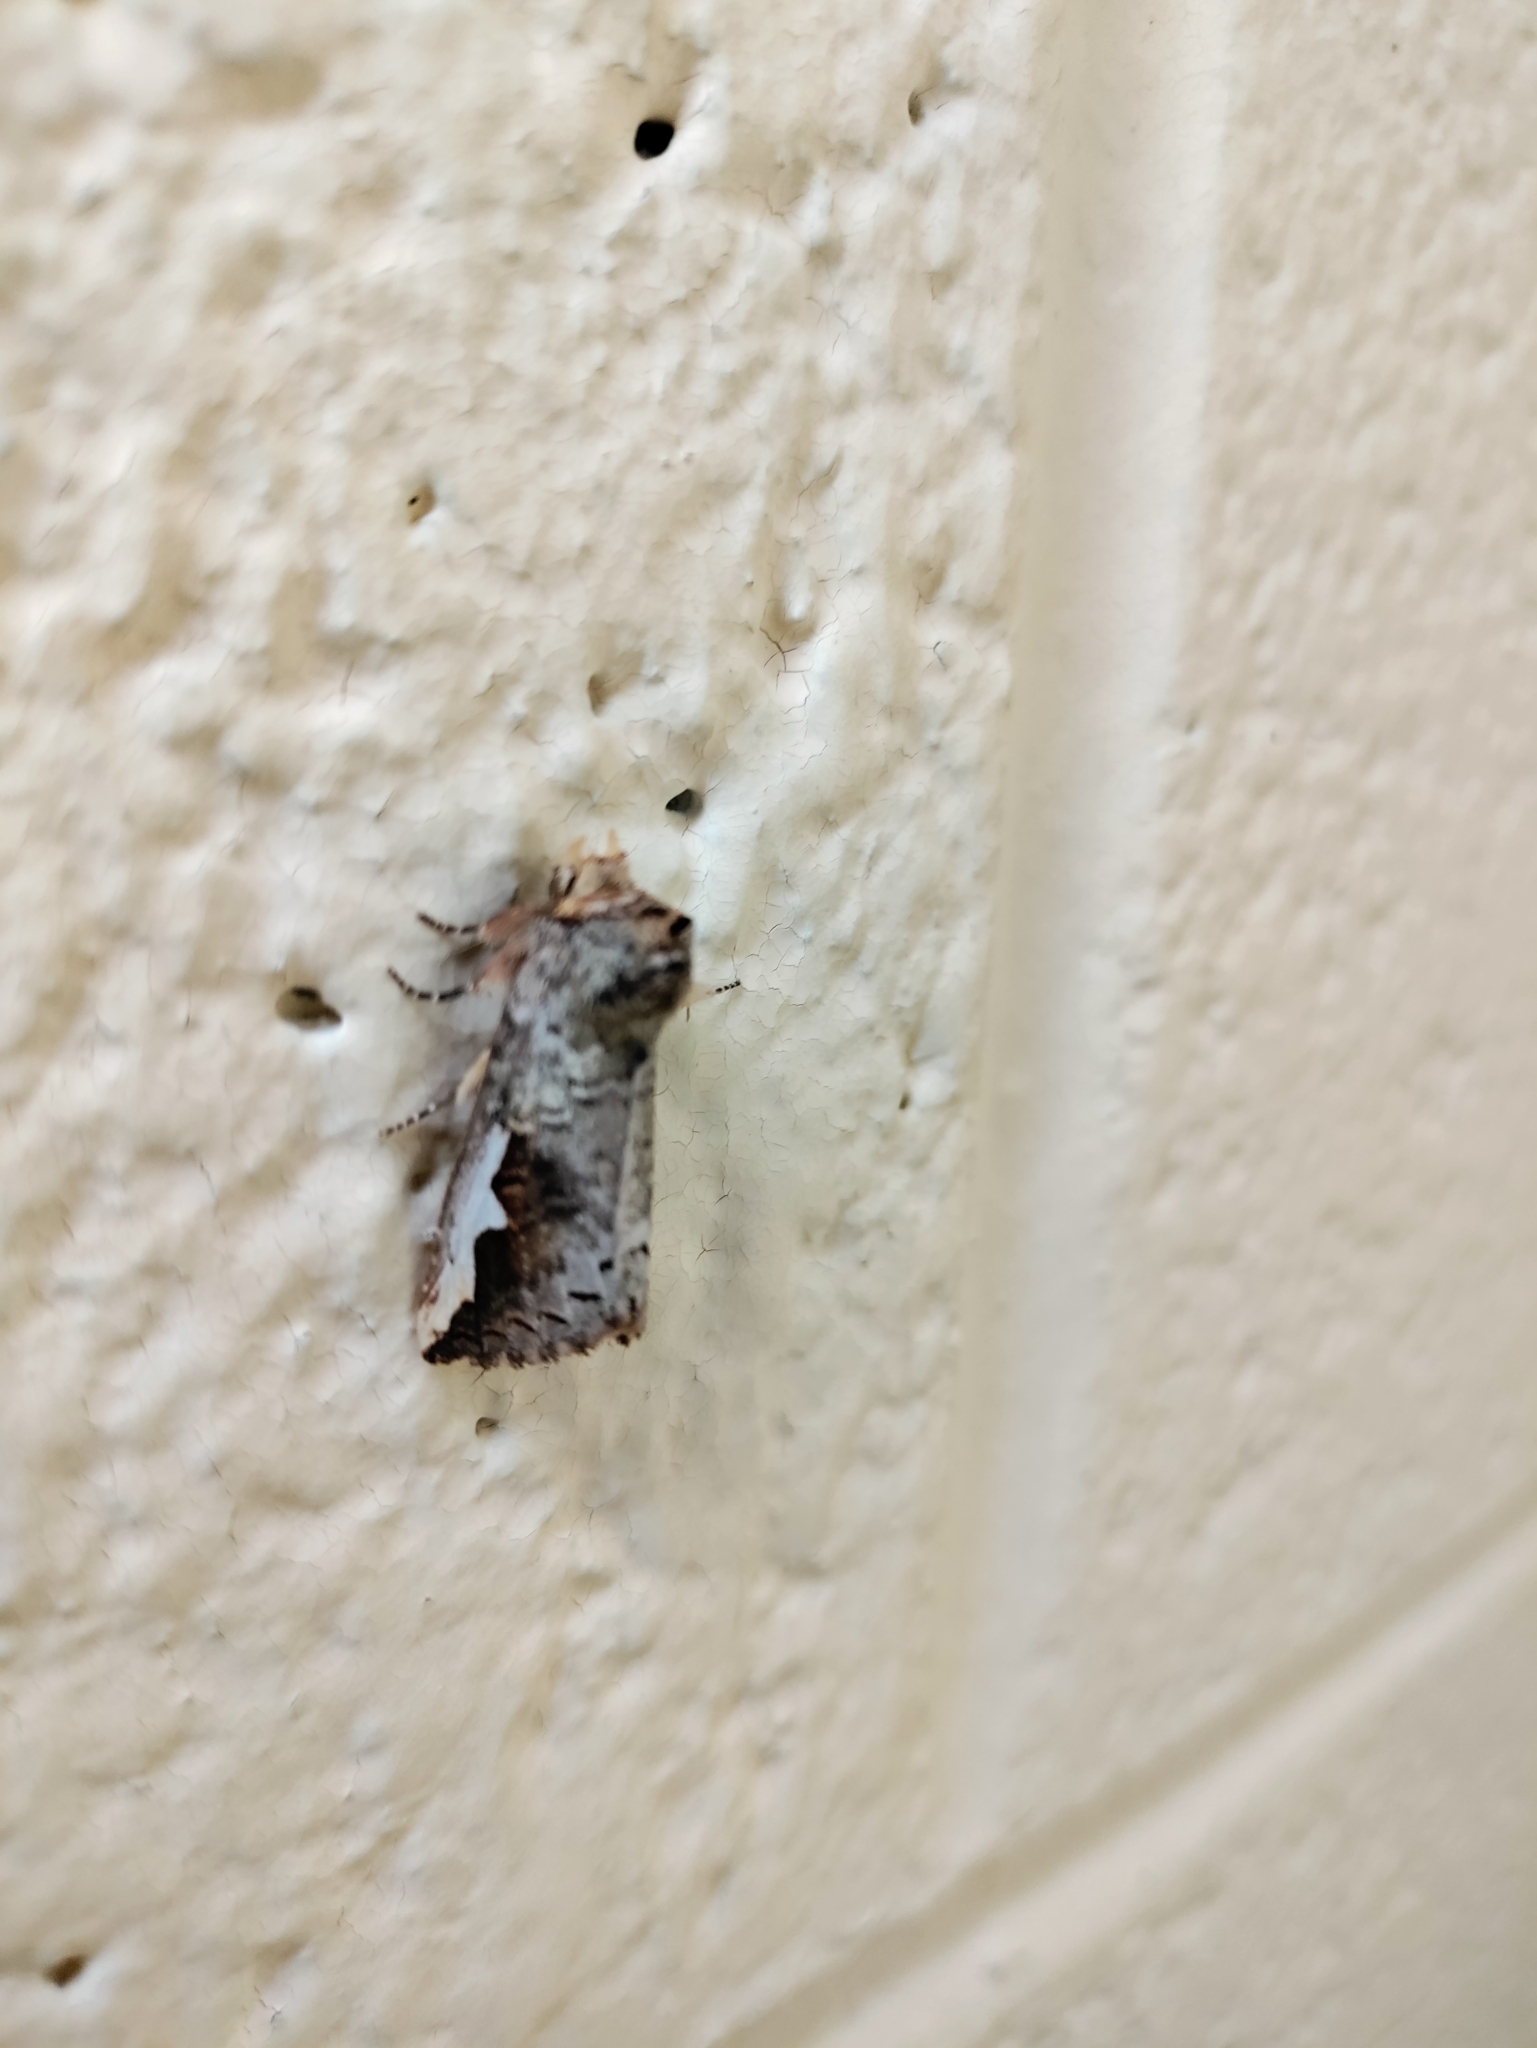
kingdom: Animalia
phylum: Arthropoda
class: Insecta
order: Lepidoptera
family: Notodontidae
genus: Symmerista
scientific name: Symmerista albifrons
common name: White-headed prominent
